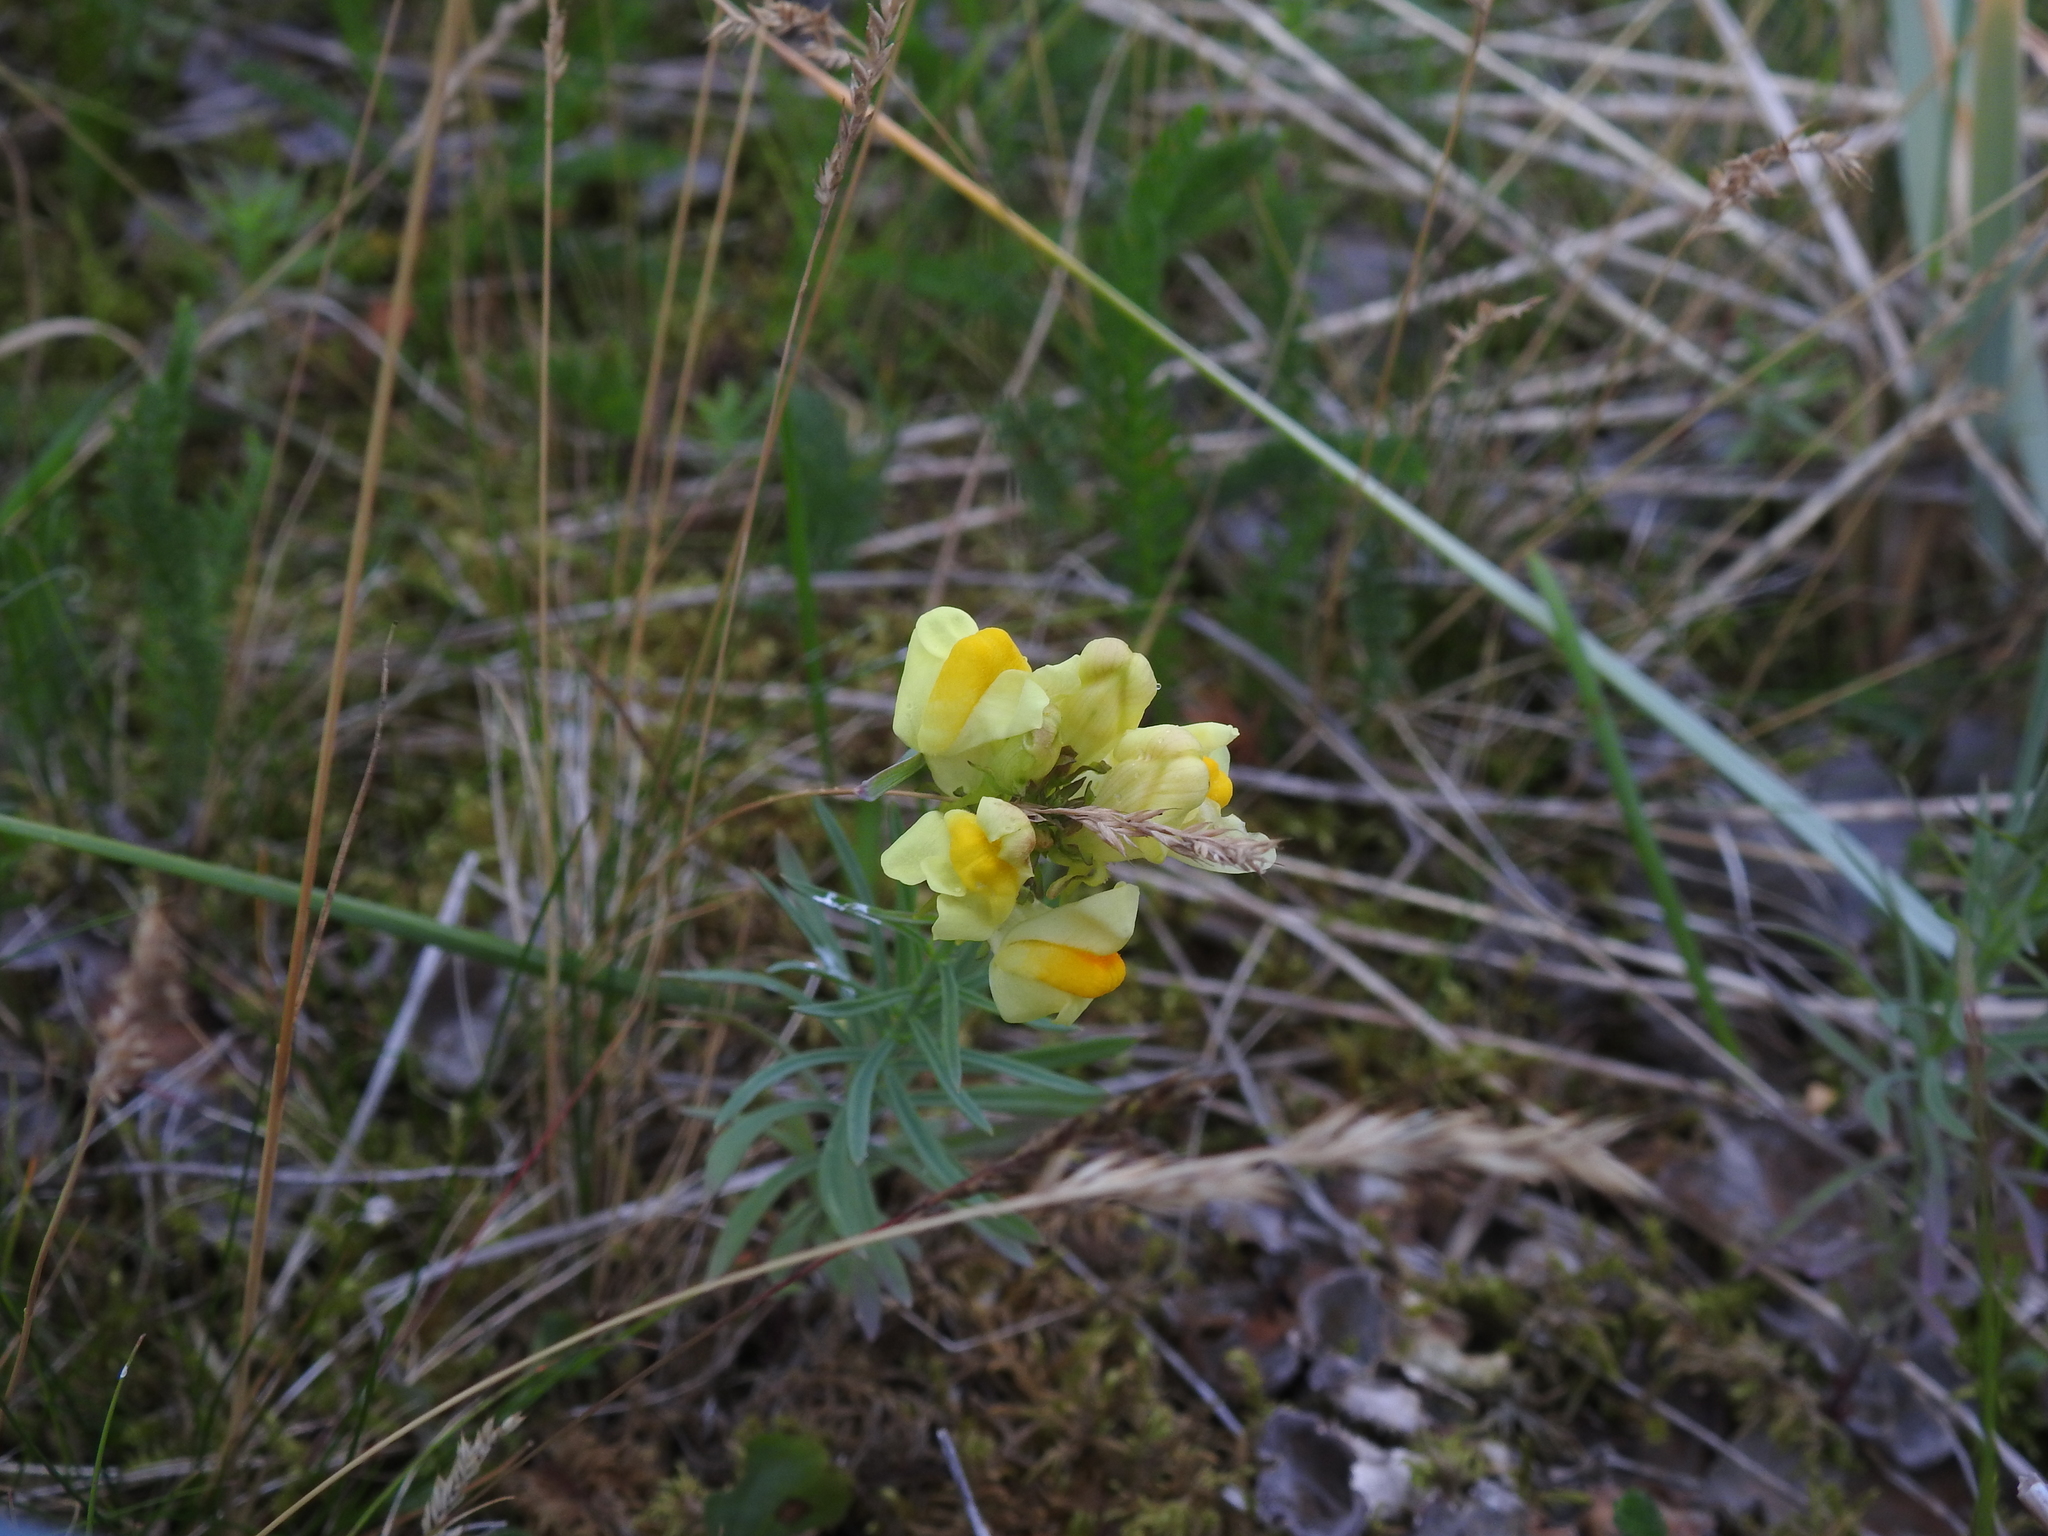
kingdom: Plantae
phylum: Tracheophyta
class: Magnoliopsida
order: Lamiales
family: Plantaginaceae
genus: Linaria
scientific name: Linaria vulgaris
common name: Butter and eggs
